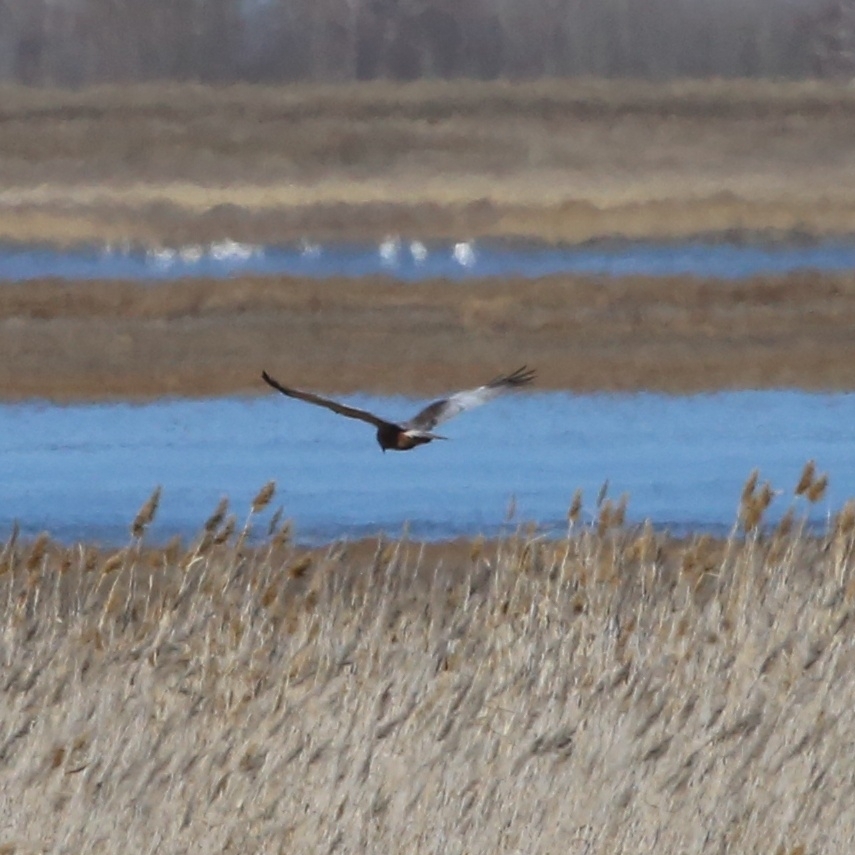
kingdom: Animalia
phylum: Chordata
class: Aves
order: Accipitriformes
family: Accipitridae
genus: Circus
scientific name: Circus aeruginosus
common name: Western marsh harrier
